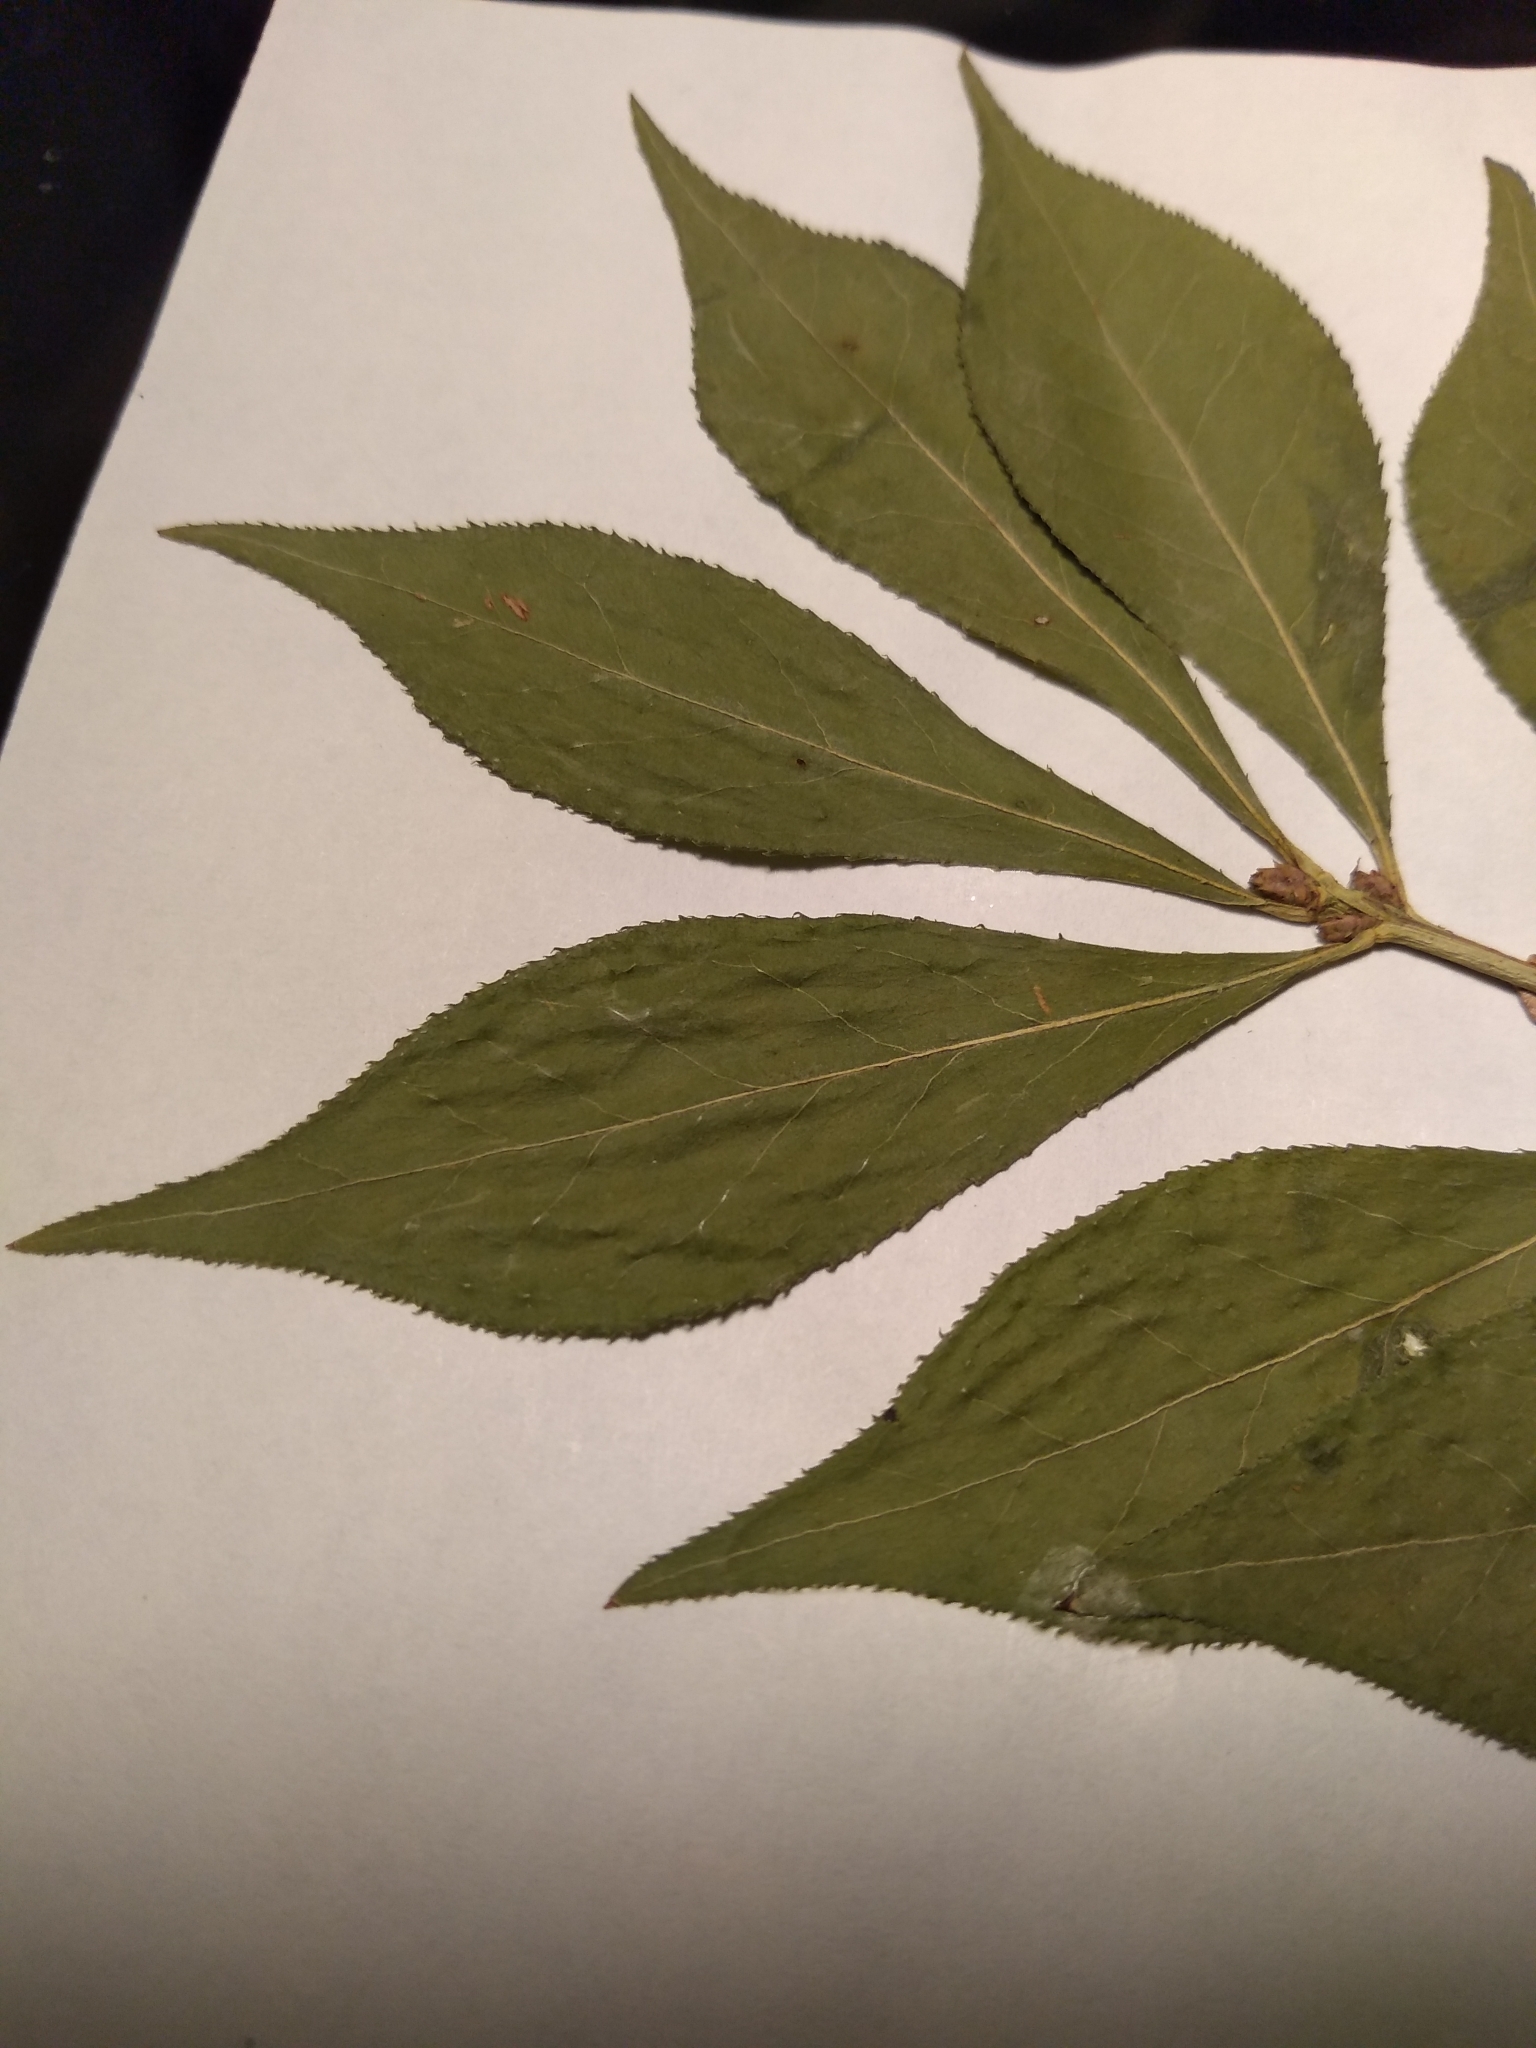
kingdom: Plantae
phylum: Tracheophyta
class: Magnoliopsida
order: Celastrales
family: Celastraceae
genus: Euonymus
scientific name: Euonymus alatus
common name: Winged euonymus
